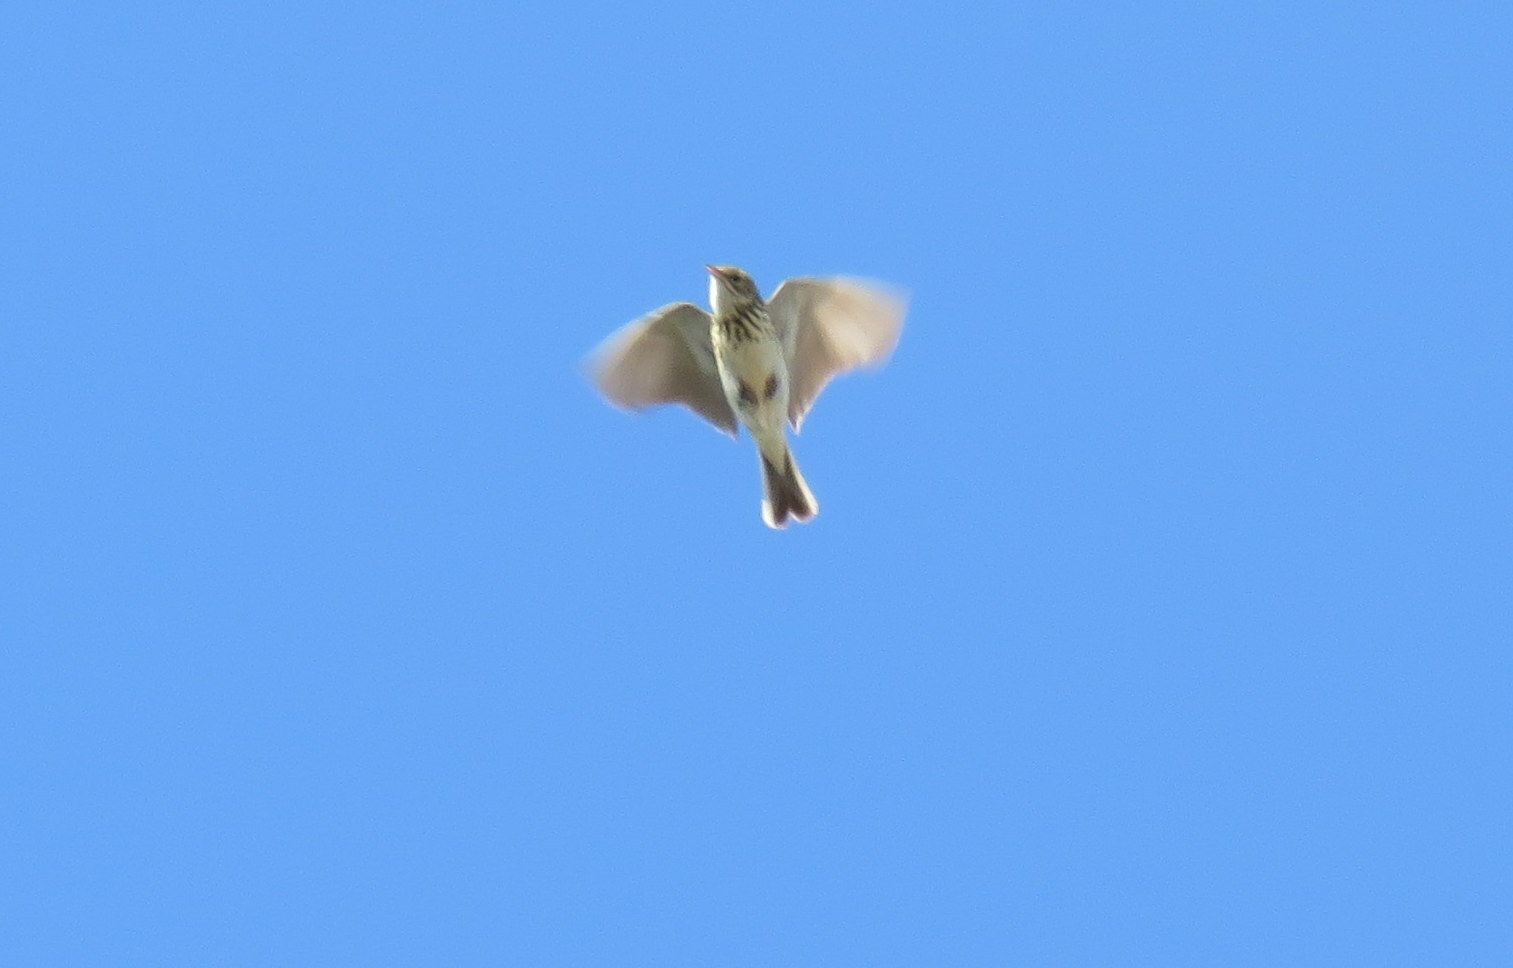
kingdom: Animalia
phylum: Chordata
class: Aves
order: Passeriformes
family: Motacillidae
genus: Anthus
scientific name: Anthus correndera
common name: Correndera pipit
